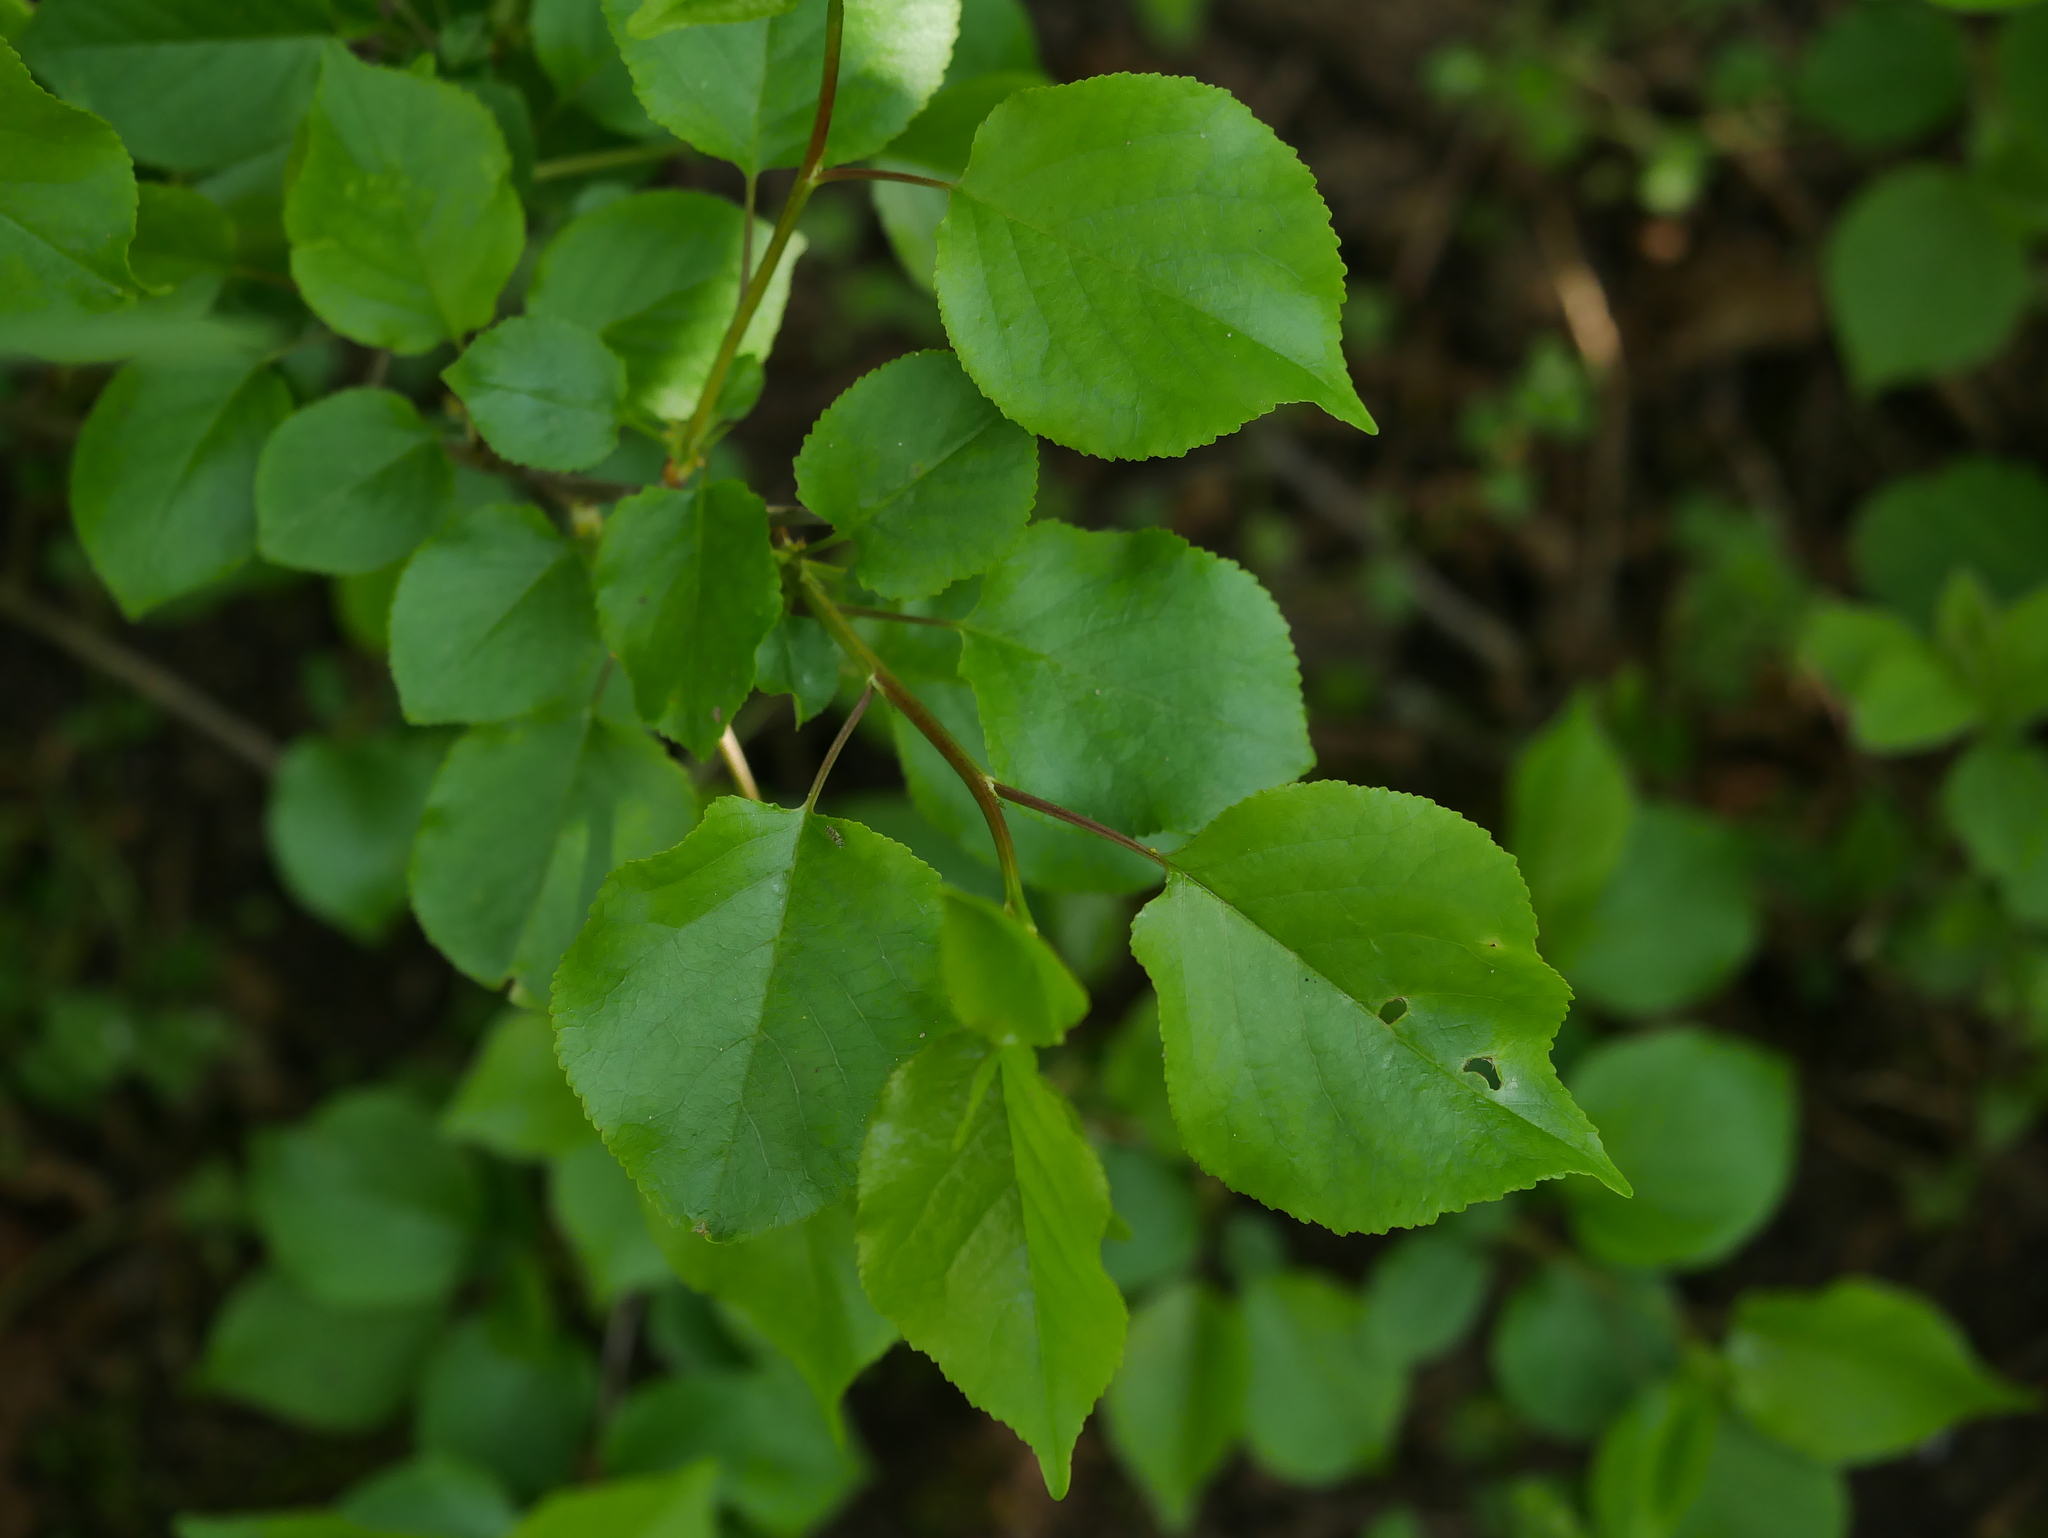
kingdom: Plantae
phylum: Tracheophyta
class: Magnoliopsida
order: Rosales
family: Rosaceae
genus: Prunus
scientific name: Prunus mahaleb
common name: Mahaleb cherry
